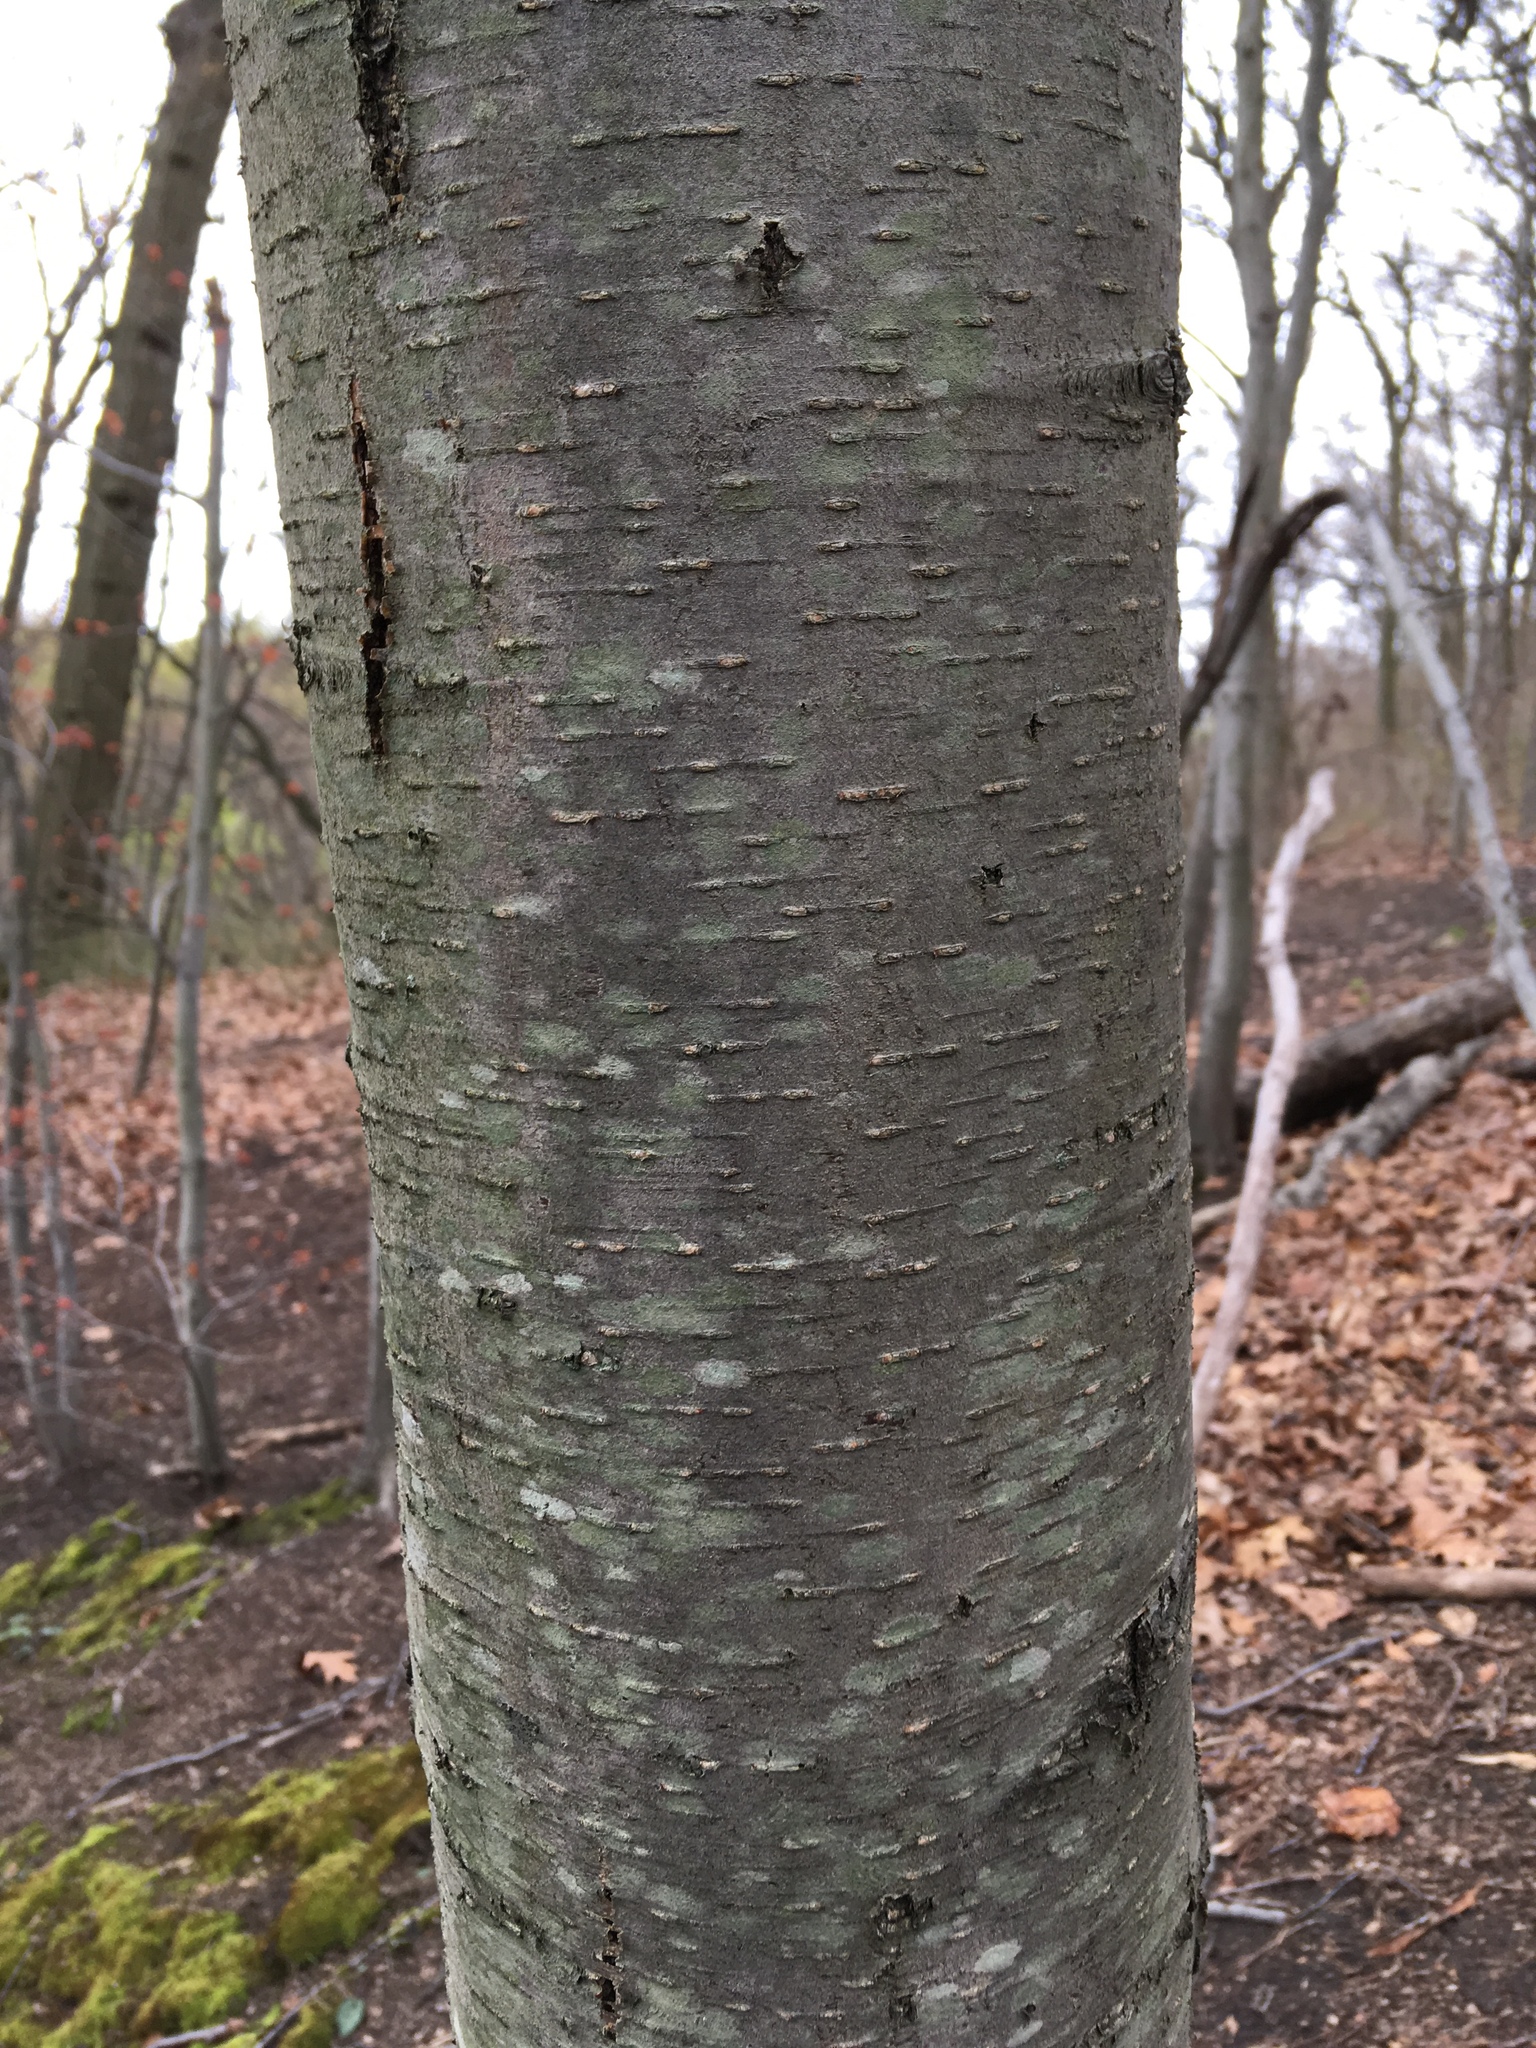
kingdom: Plantae
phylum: Tracheophyta
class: Magnoliopsida
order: Fagales
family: Betulaceae
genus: Betula
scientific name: Betula lenta
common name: Black birch
